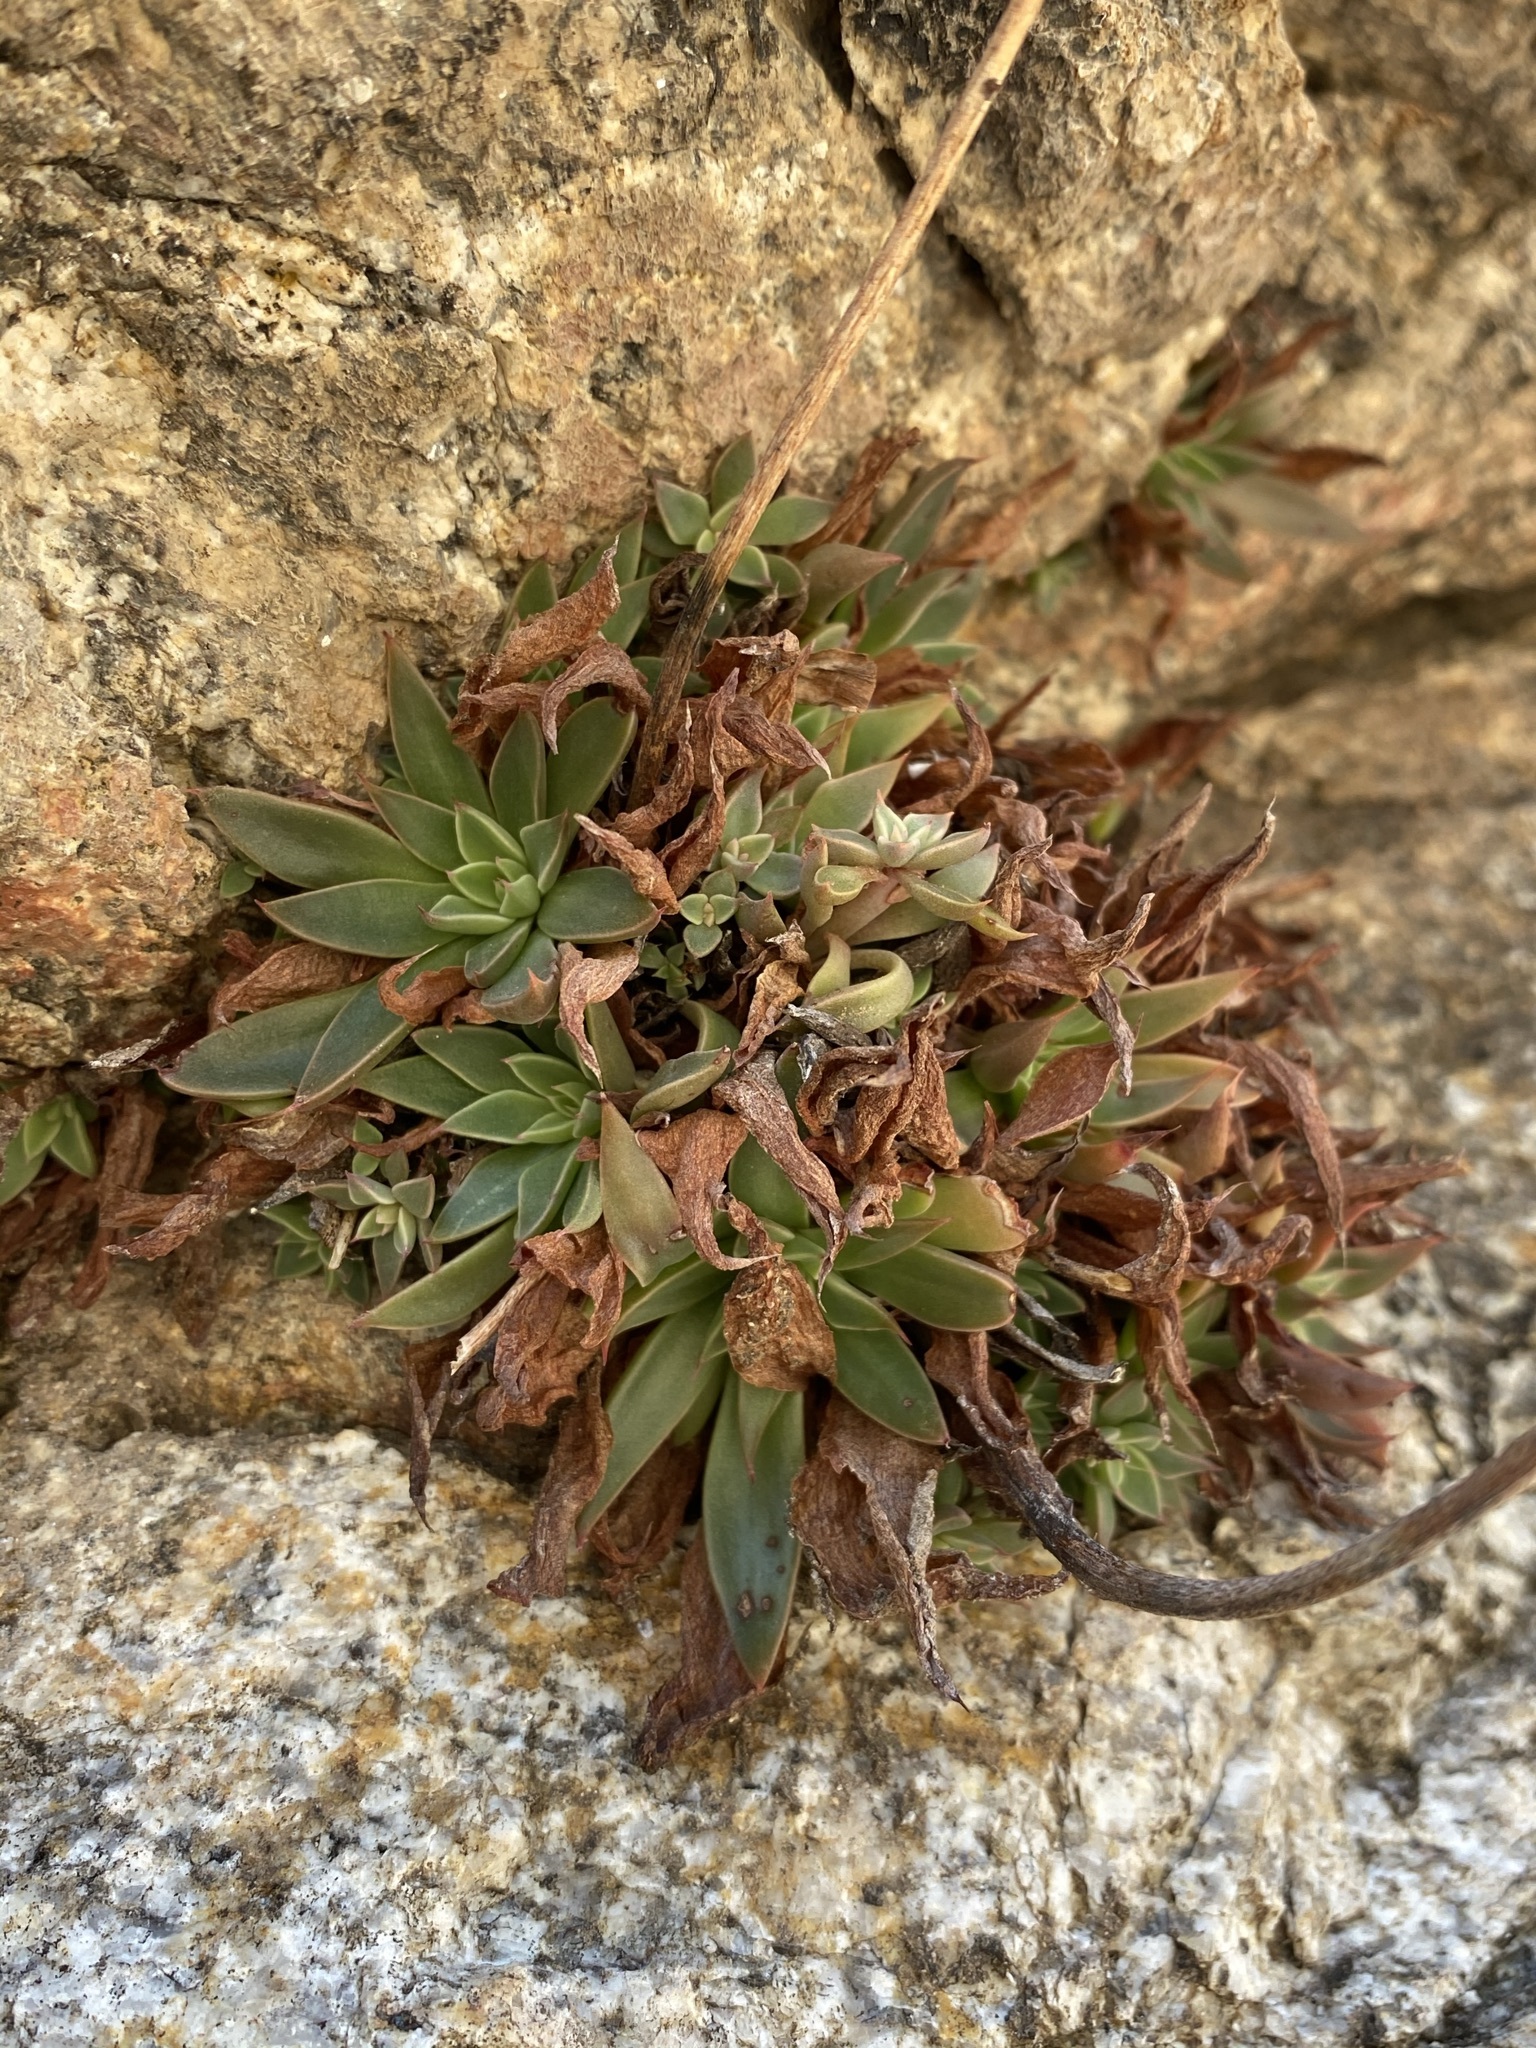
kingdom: Plantae
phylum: Tracheophyta
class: Magnoliopsida
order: Saxifragales
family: Crassulaceae
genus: Graptopetalum
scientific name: Graptopetalum rusbyi
